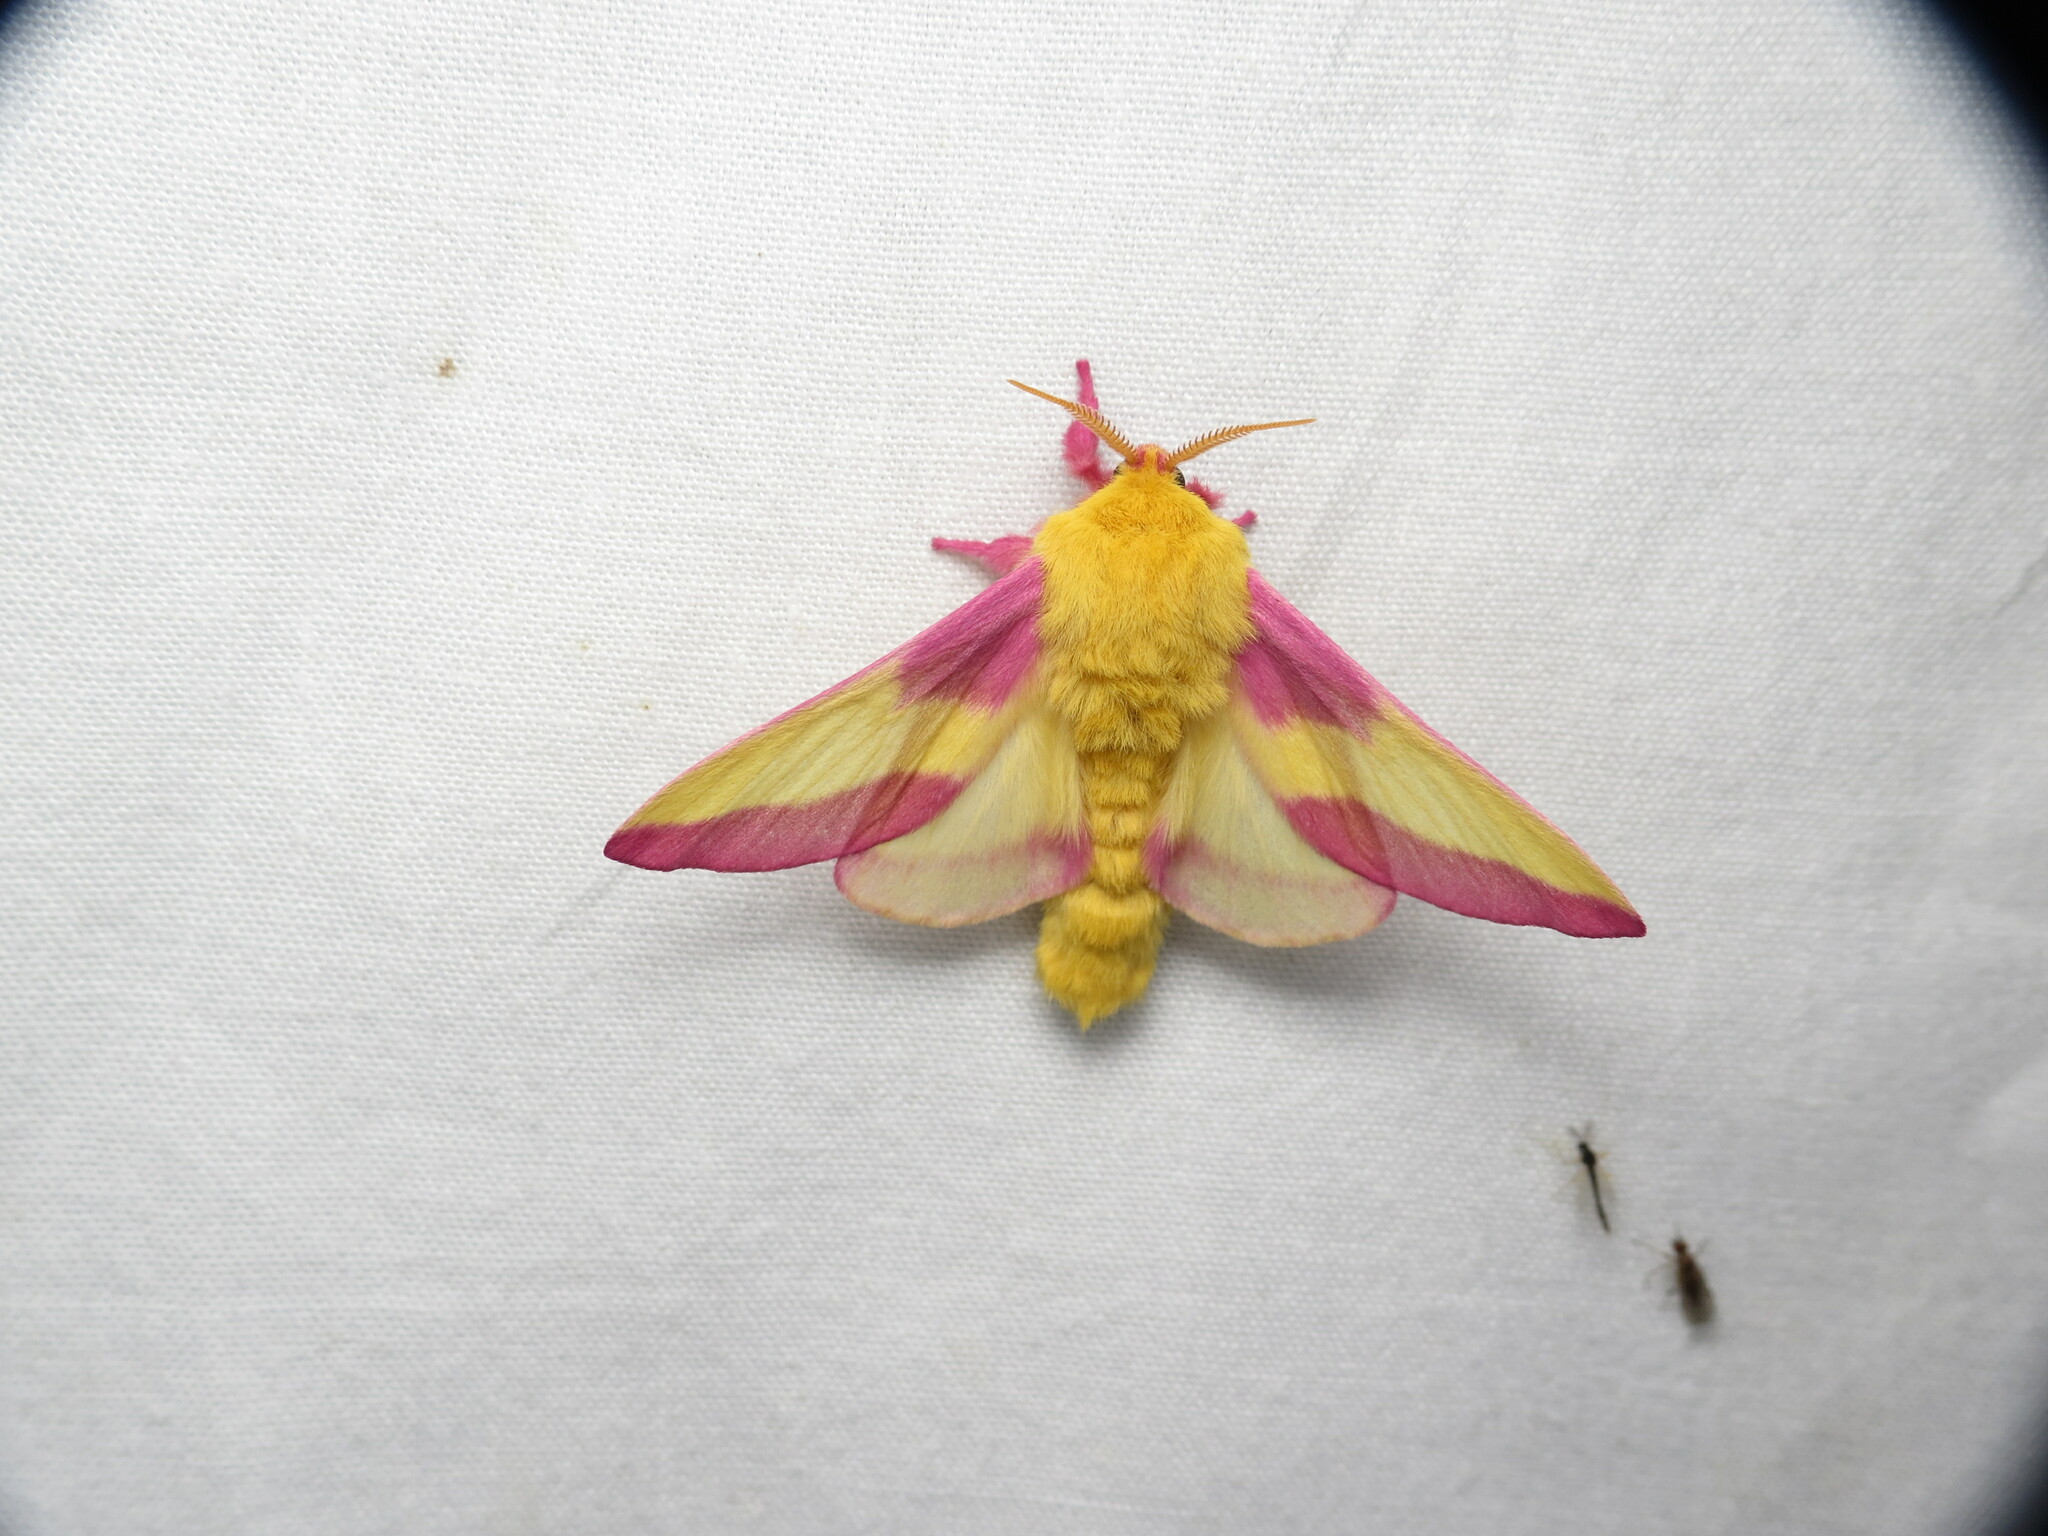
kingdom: Animalia
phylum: Arthropoda
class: Insecta
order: Lepidoptera
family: Saturniidae
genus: Dryocampa
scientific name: Dryocampa rubicunda
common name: Rosy maple moth
